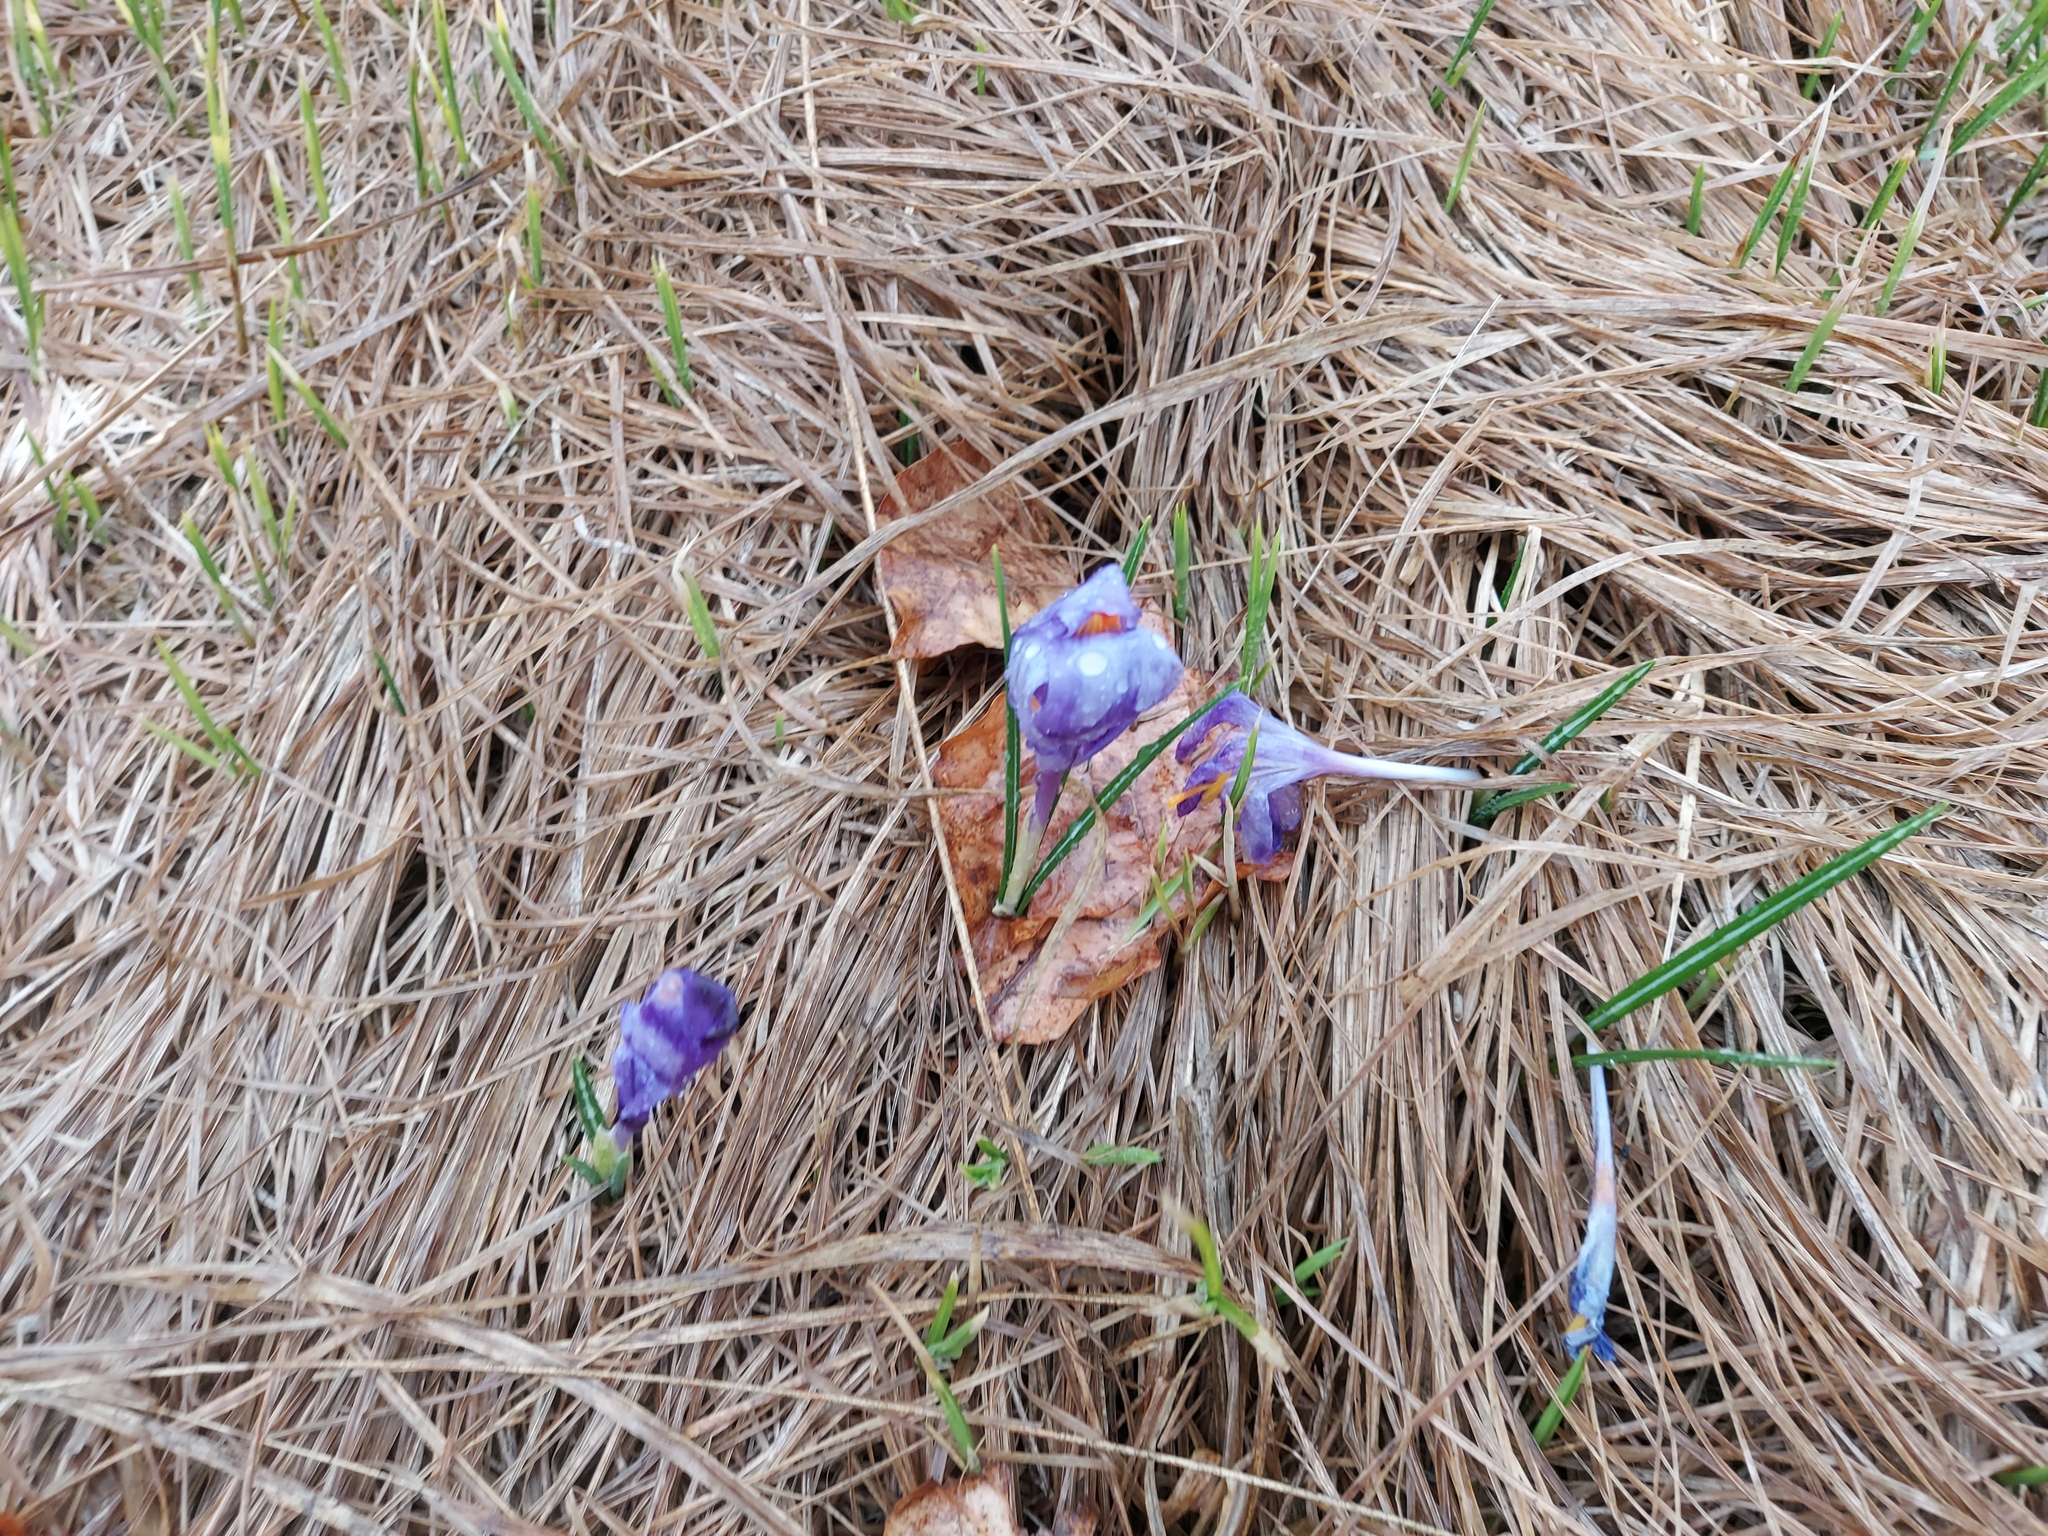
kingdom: Plantae
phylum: Tracheophyta
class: Liliopsida
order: Asparagales
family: Iridaceae
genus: Crocus
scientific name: Crocus heuffelianus
